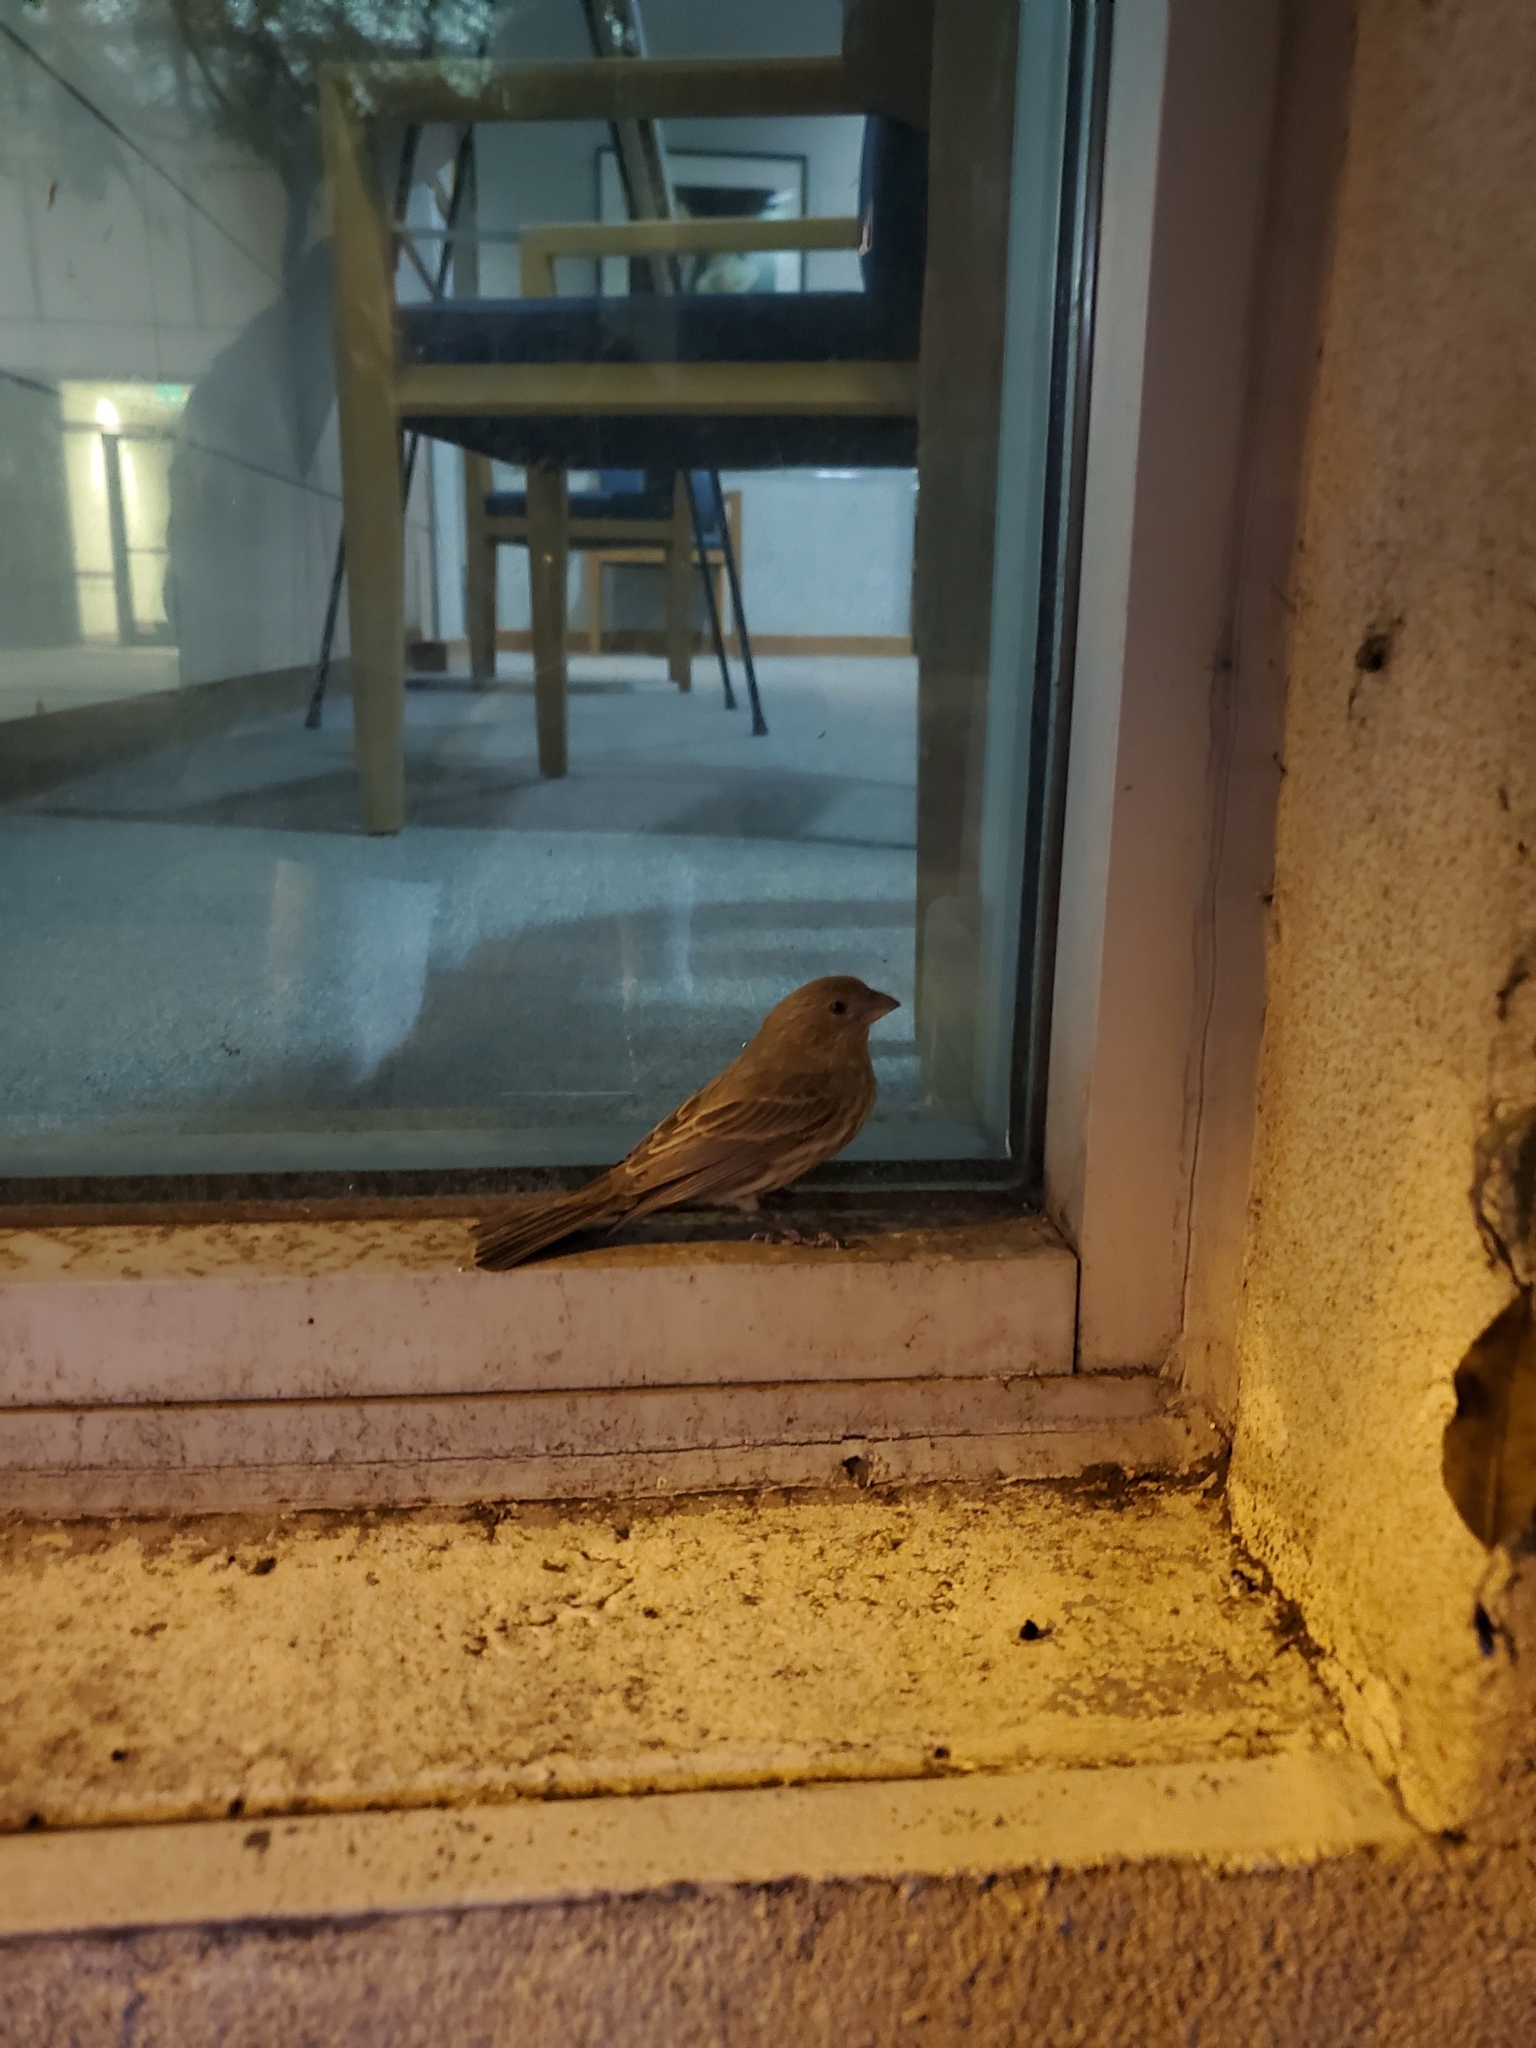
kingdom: Animalia
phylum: Chordata
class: Aves
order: Passeriformes
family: Fringillidae
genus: Haemorhous
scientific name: Haemorhous mexicanus
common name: House finch
